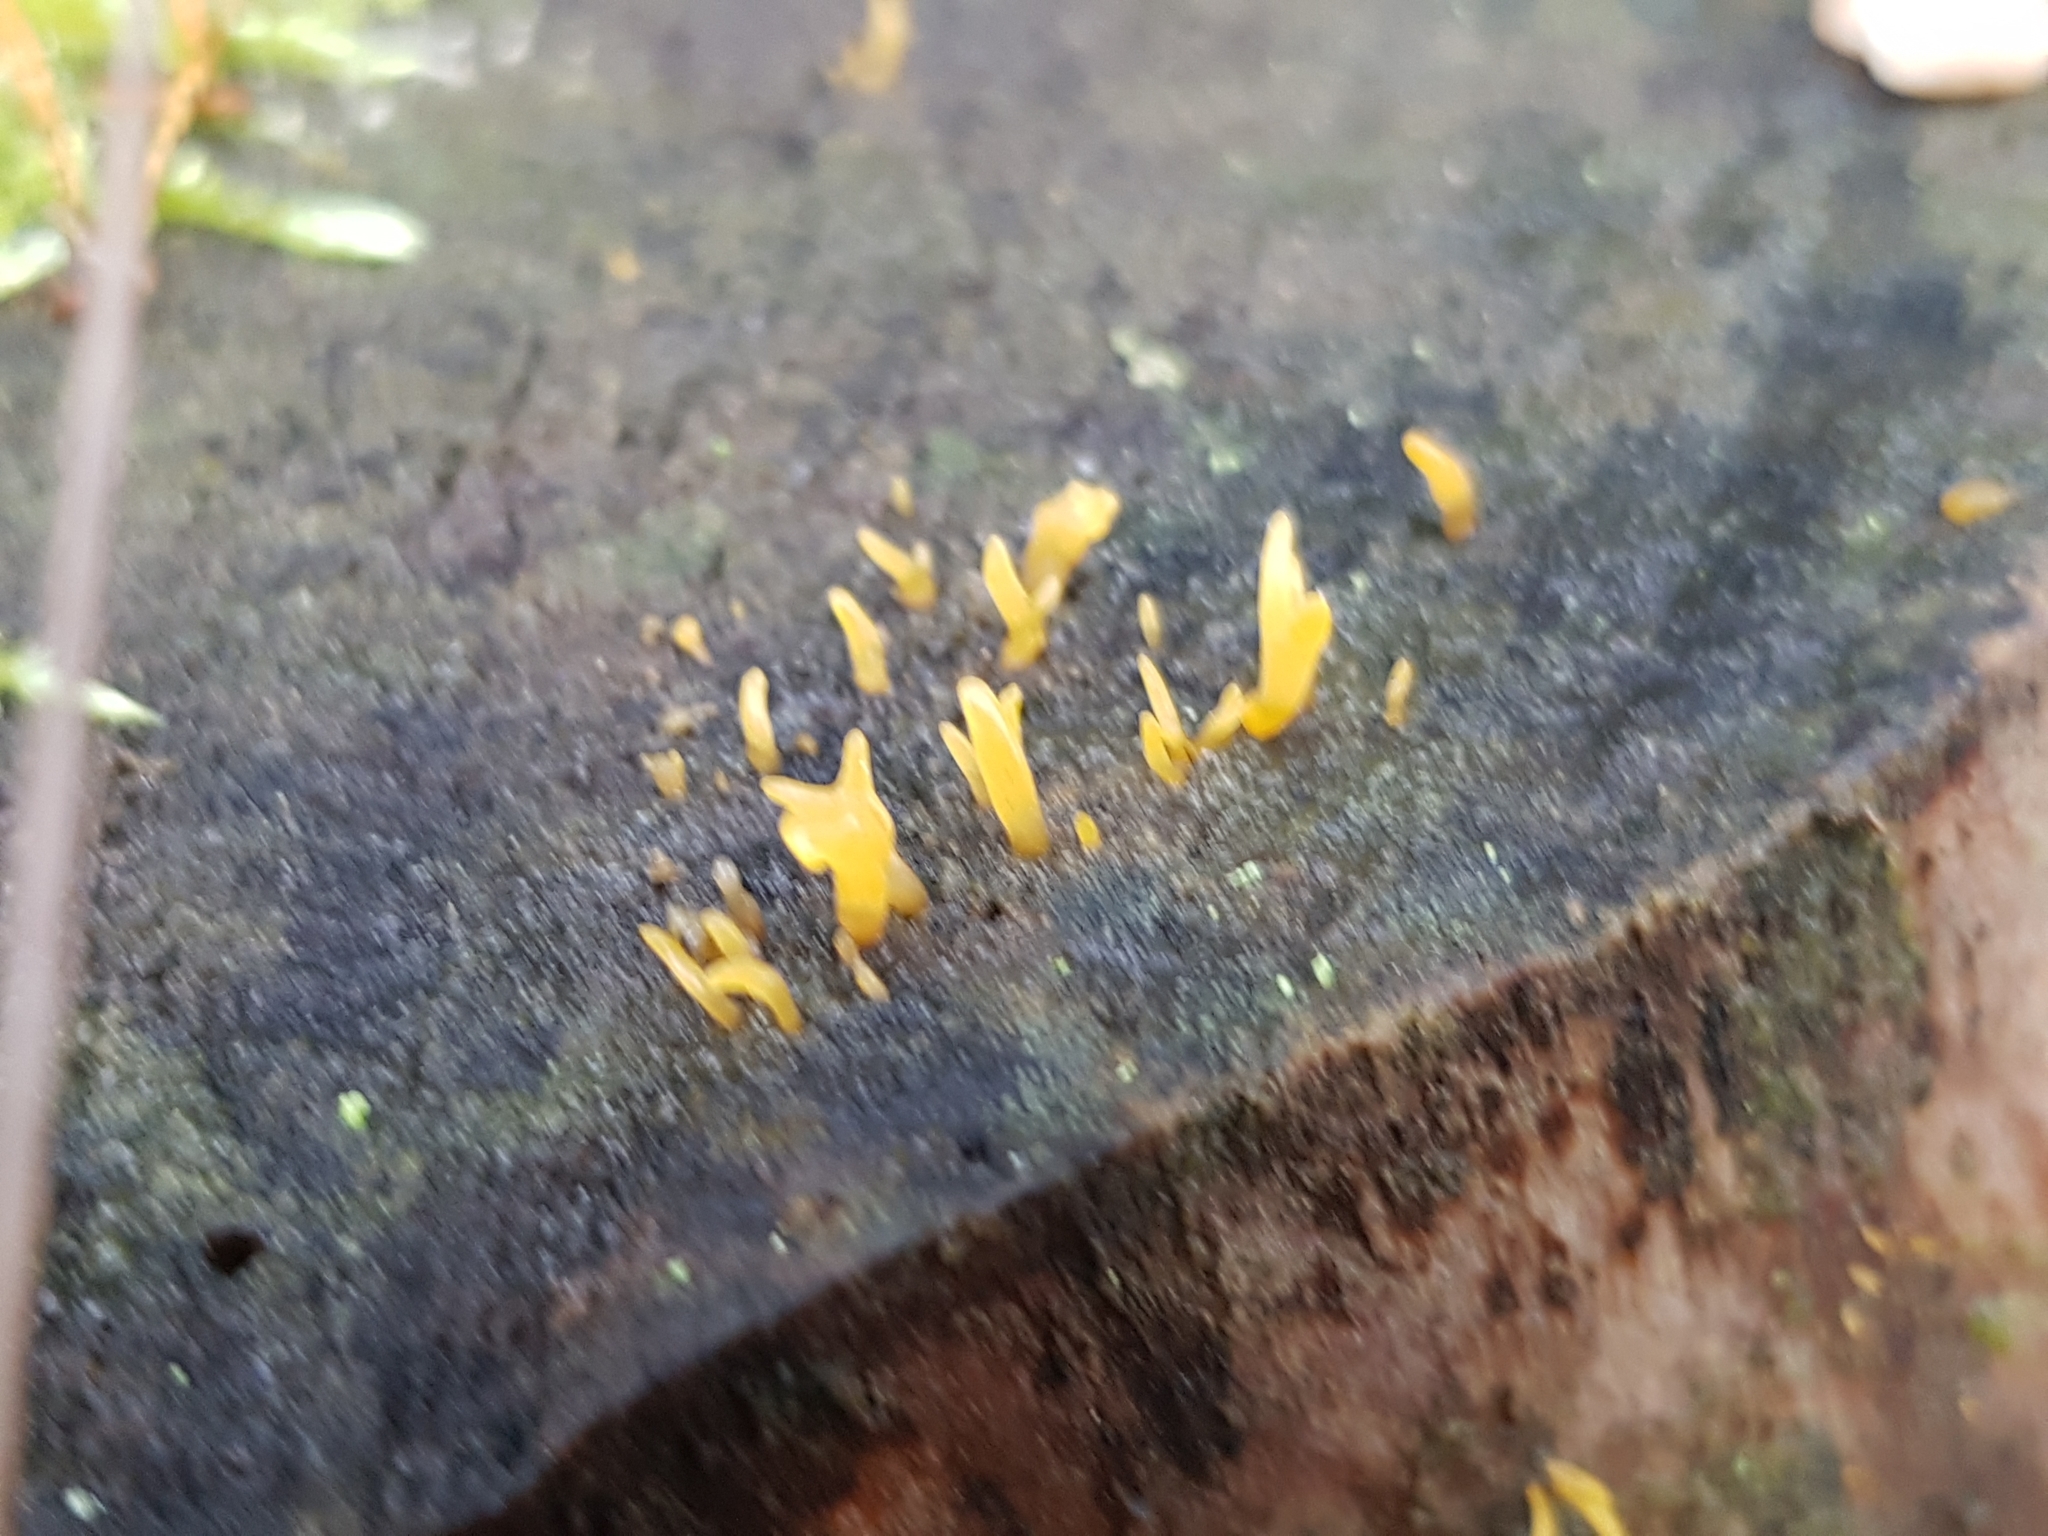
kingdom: Fungi
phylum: Basidiomycota
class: Dacrymycetes
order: Dacrymycetales
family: Dacrymycetaceae
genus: Calocera
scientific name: Calocera cornea
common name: Small stagshorn
